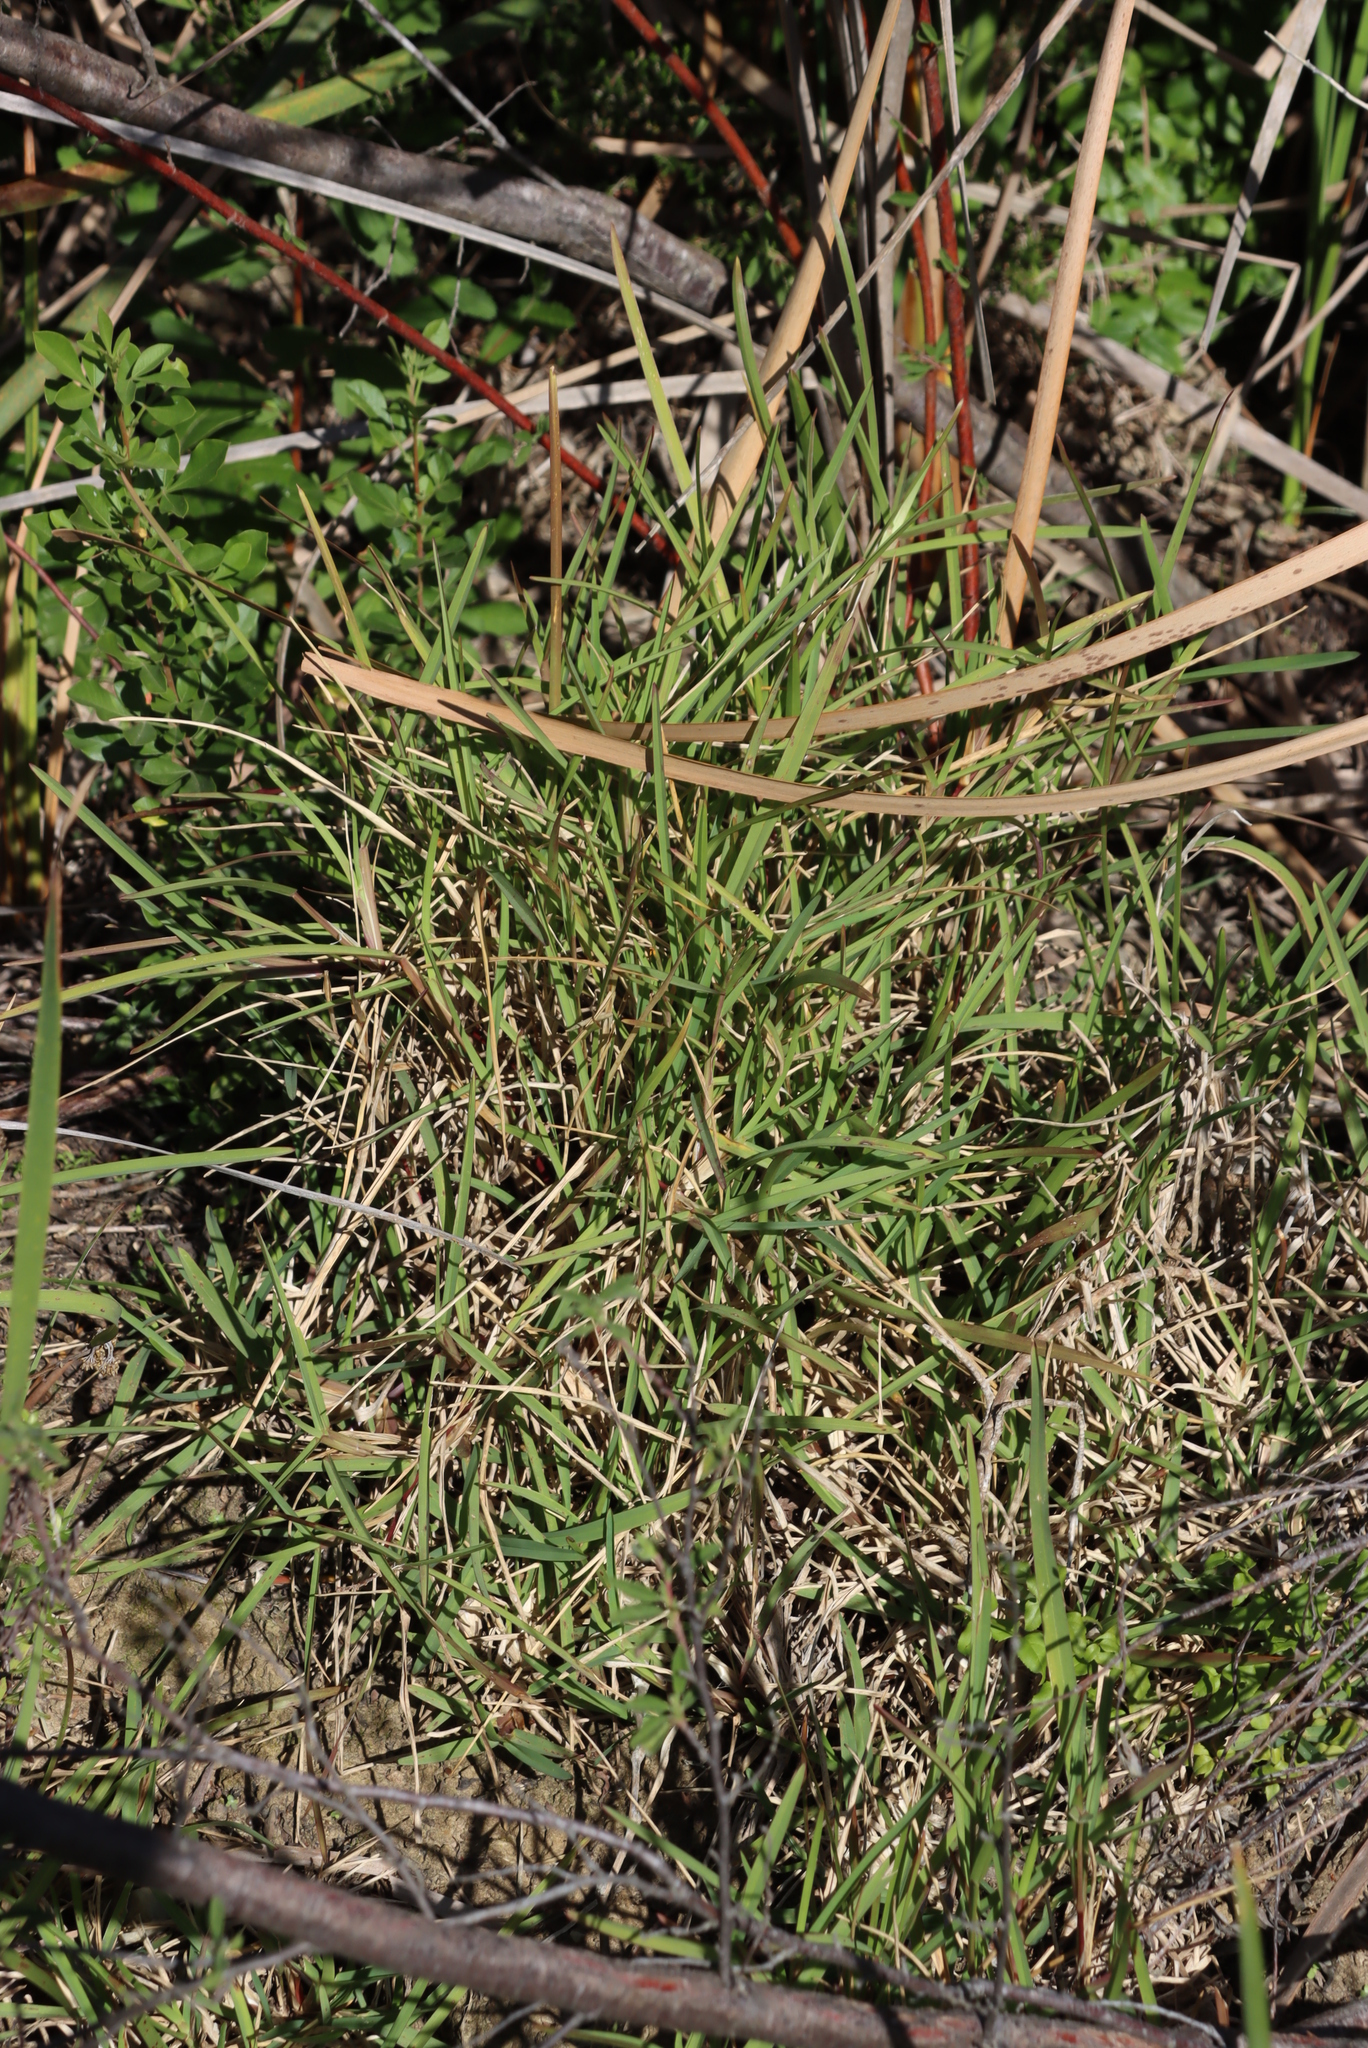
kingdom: Plantae
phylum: Tracheophyta
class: Liliopsida
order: Poales
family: Poaceae
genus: Cenchrus
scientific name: Cenchrus clandestinus
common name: Kikuyugrass
